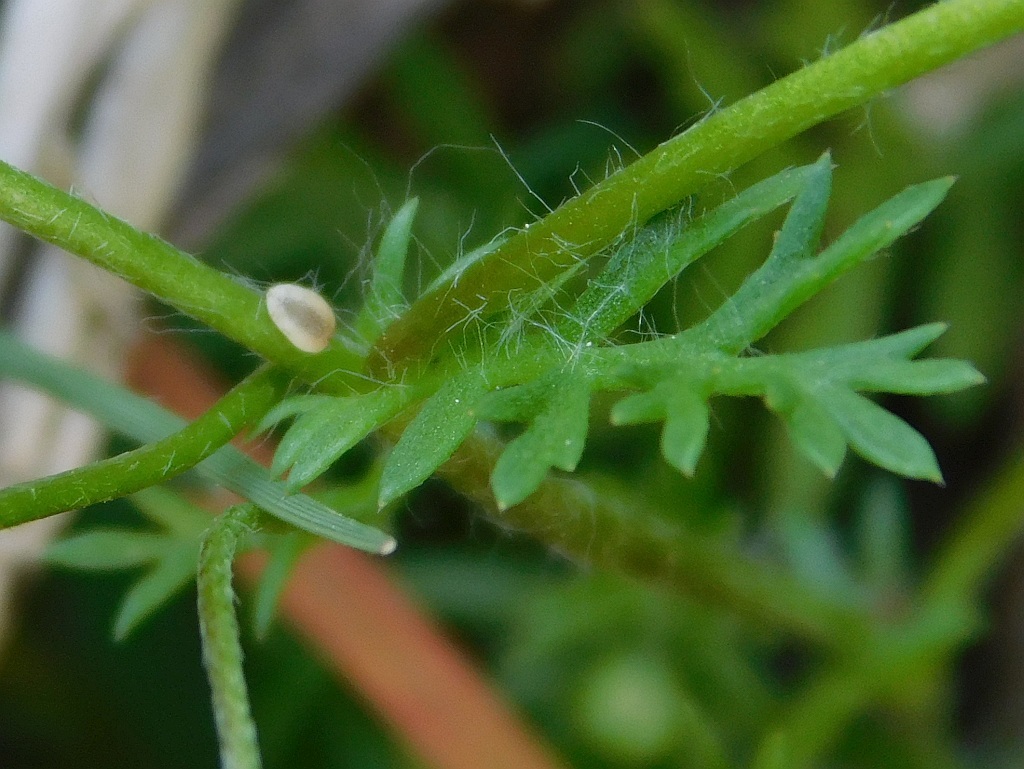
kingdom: Plantae
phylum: Tracheophyta
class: Magnoliopsida
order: Asterales
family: Asteraceae
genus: Cotula
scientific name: Cotula australis
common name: Australian waterbuttons
